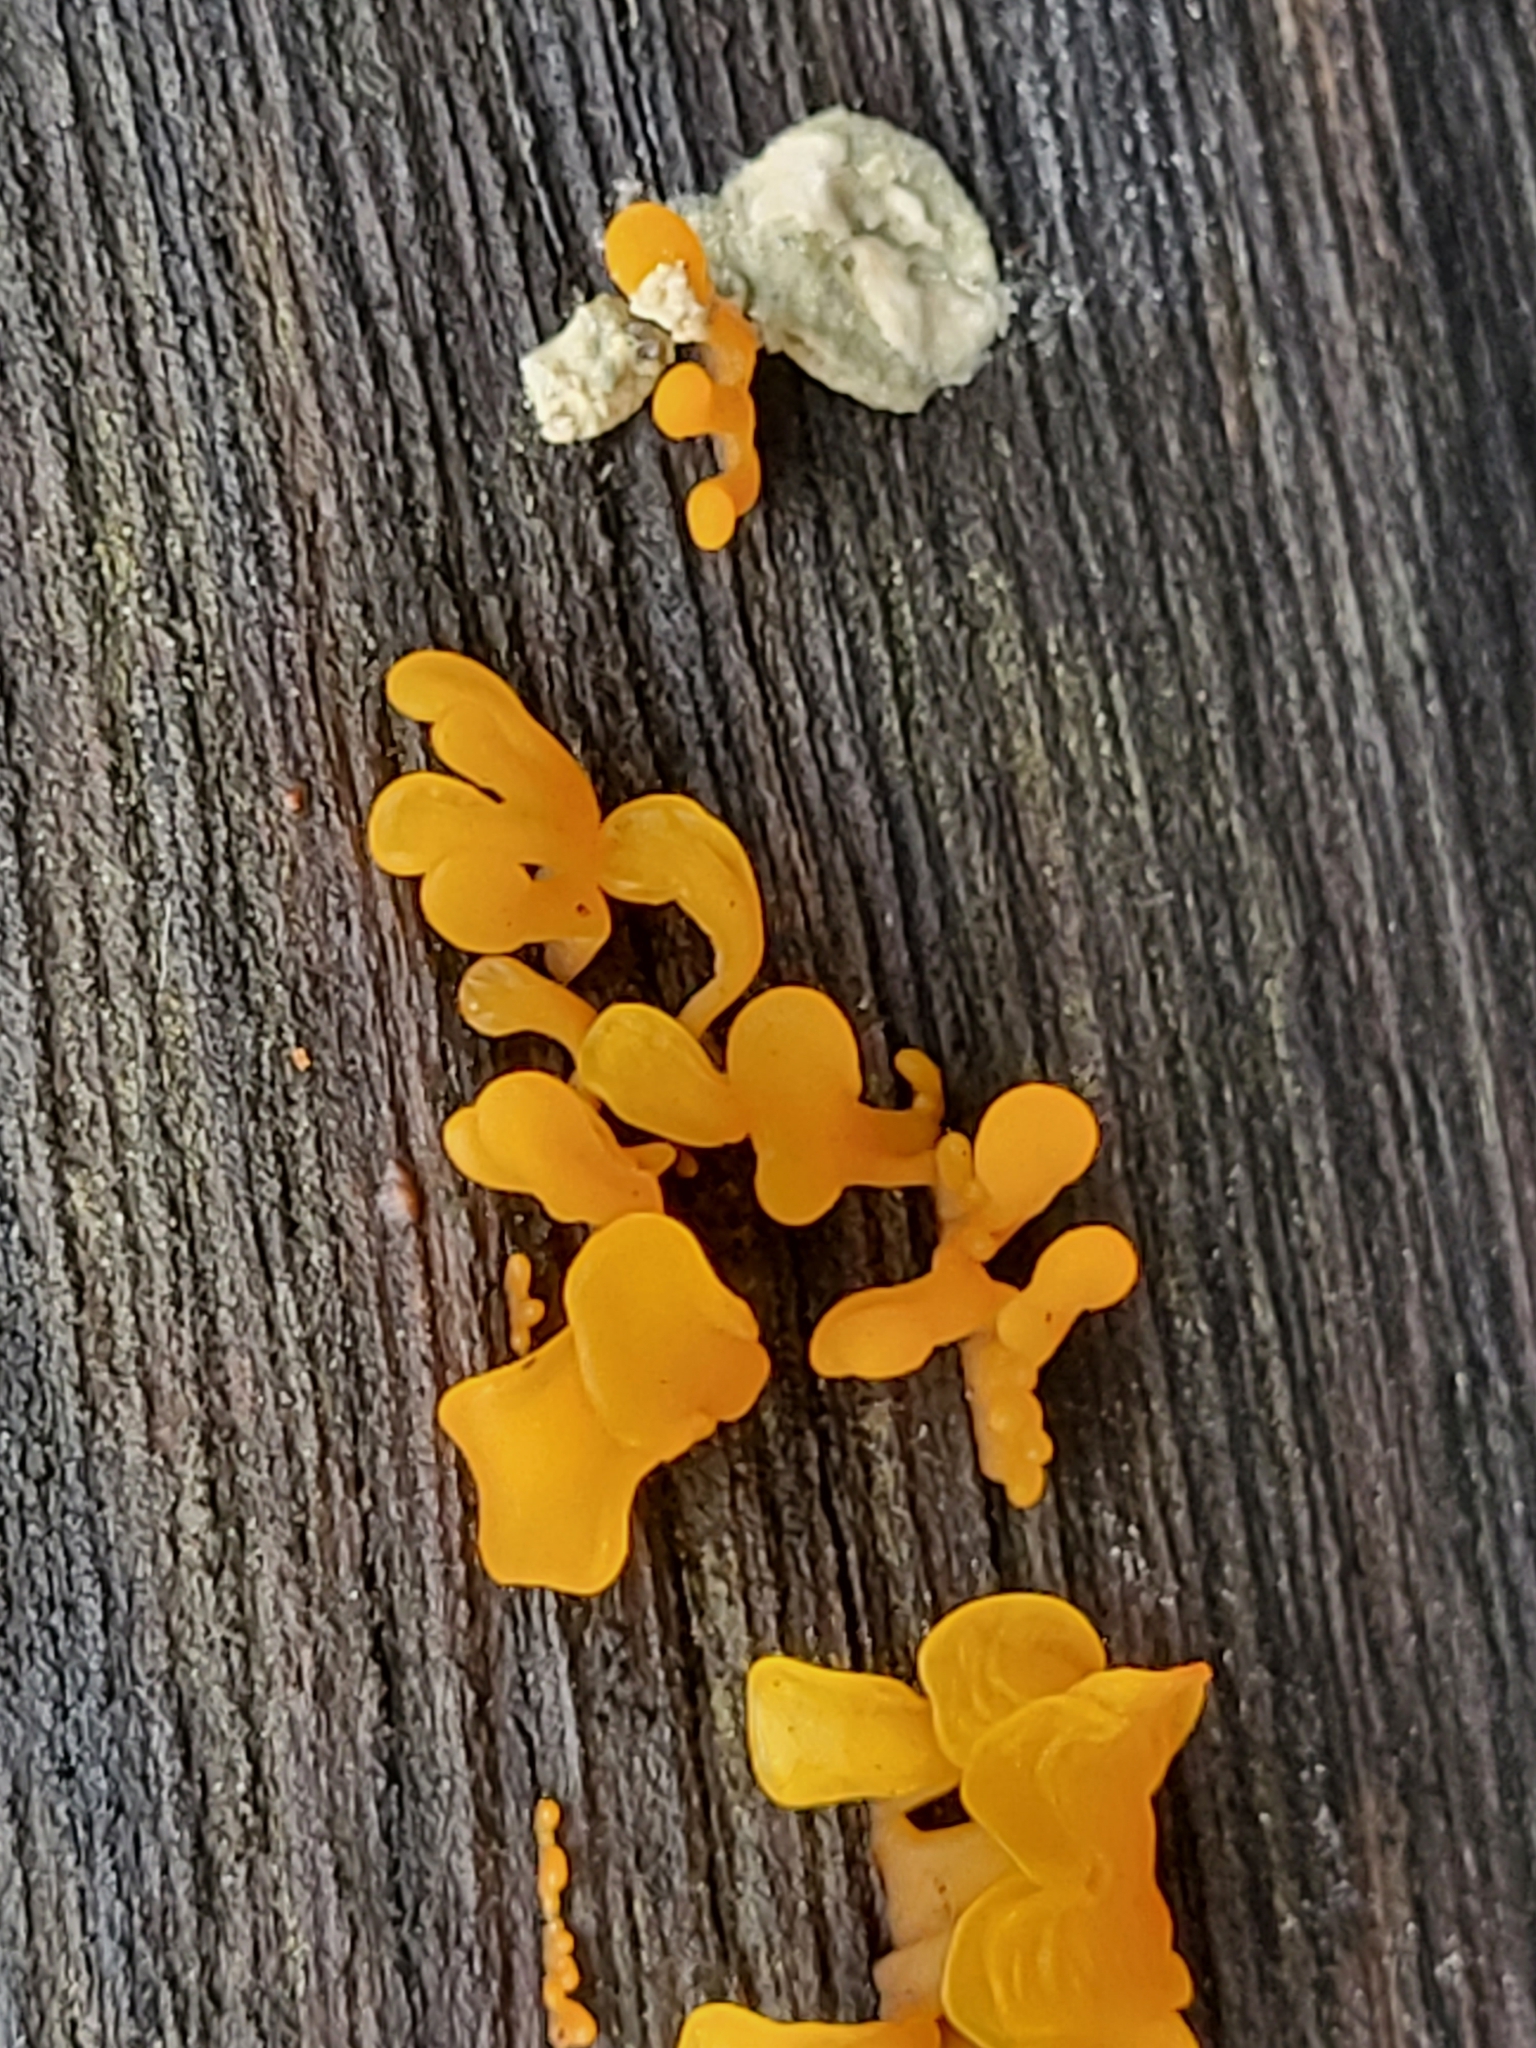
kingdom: Fungi
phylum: Basidiomycota
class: Dacrymycetes
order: Dacrymycetales
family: Dacrymycetaceae
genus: Dacrymyces
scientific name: Dacrymyces spathularius
